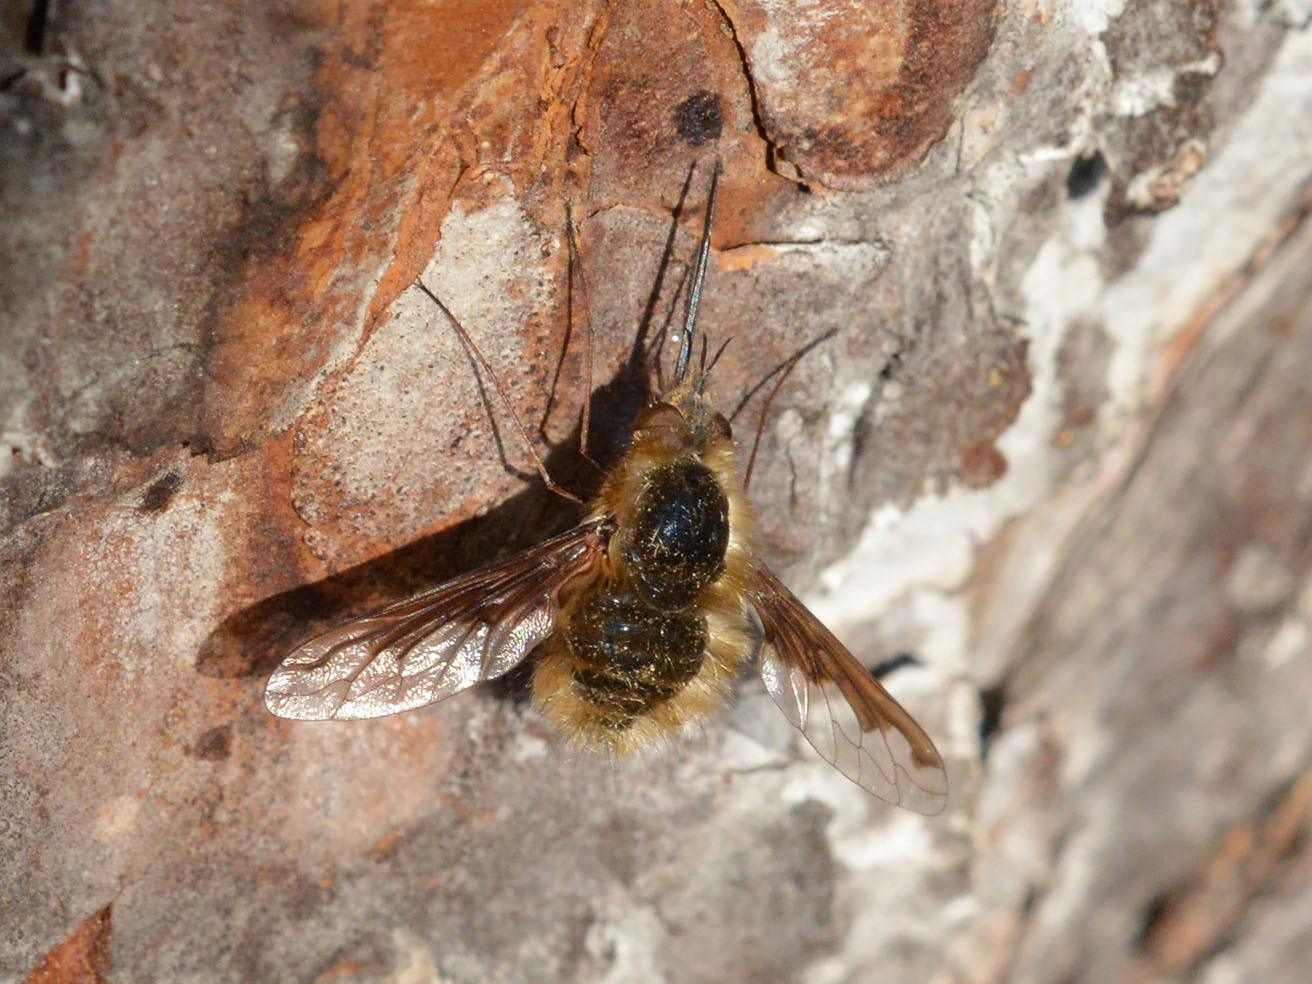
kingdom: Animalia
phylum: Arthropoda
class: Insecta
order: Diptera
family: Bombyliidae
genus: Bombylius
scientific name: Bombylius major
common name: Bee fly
